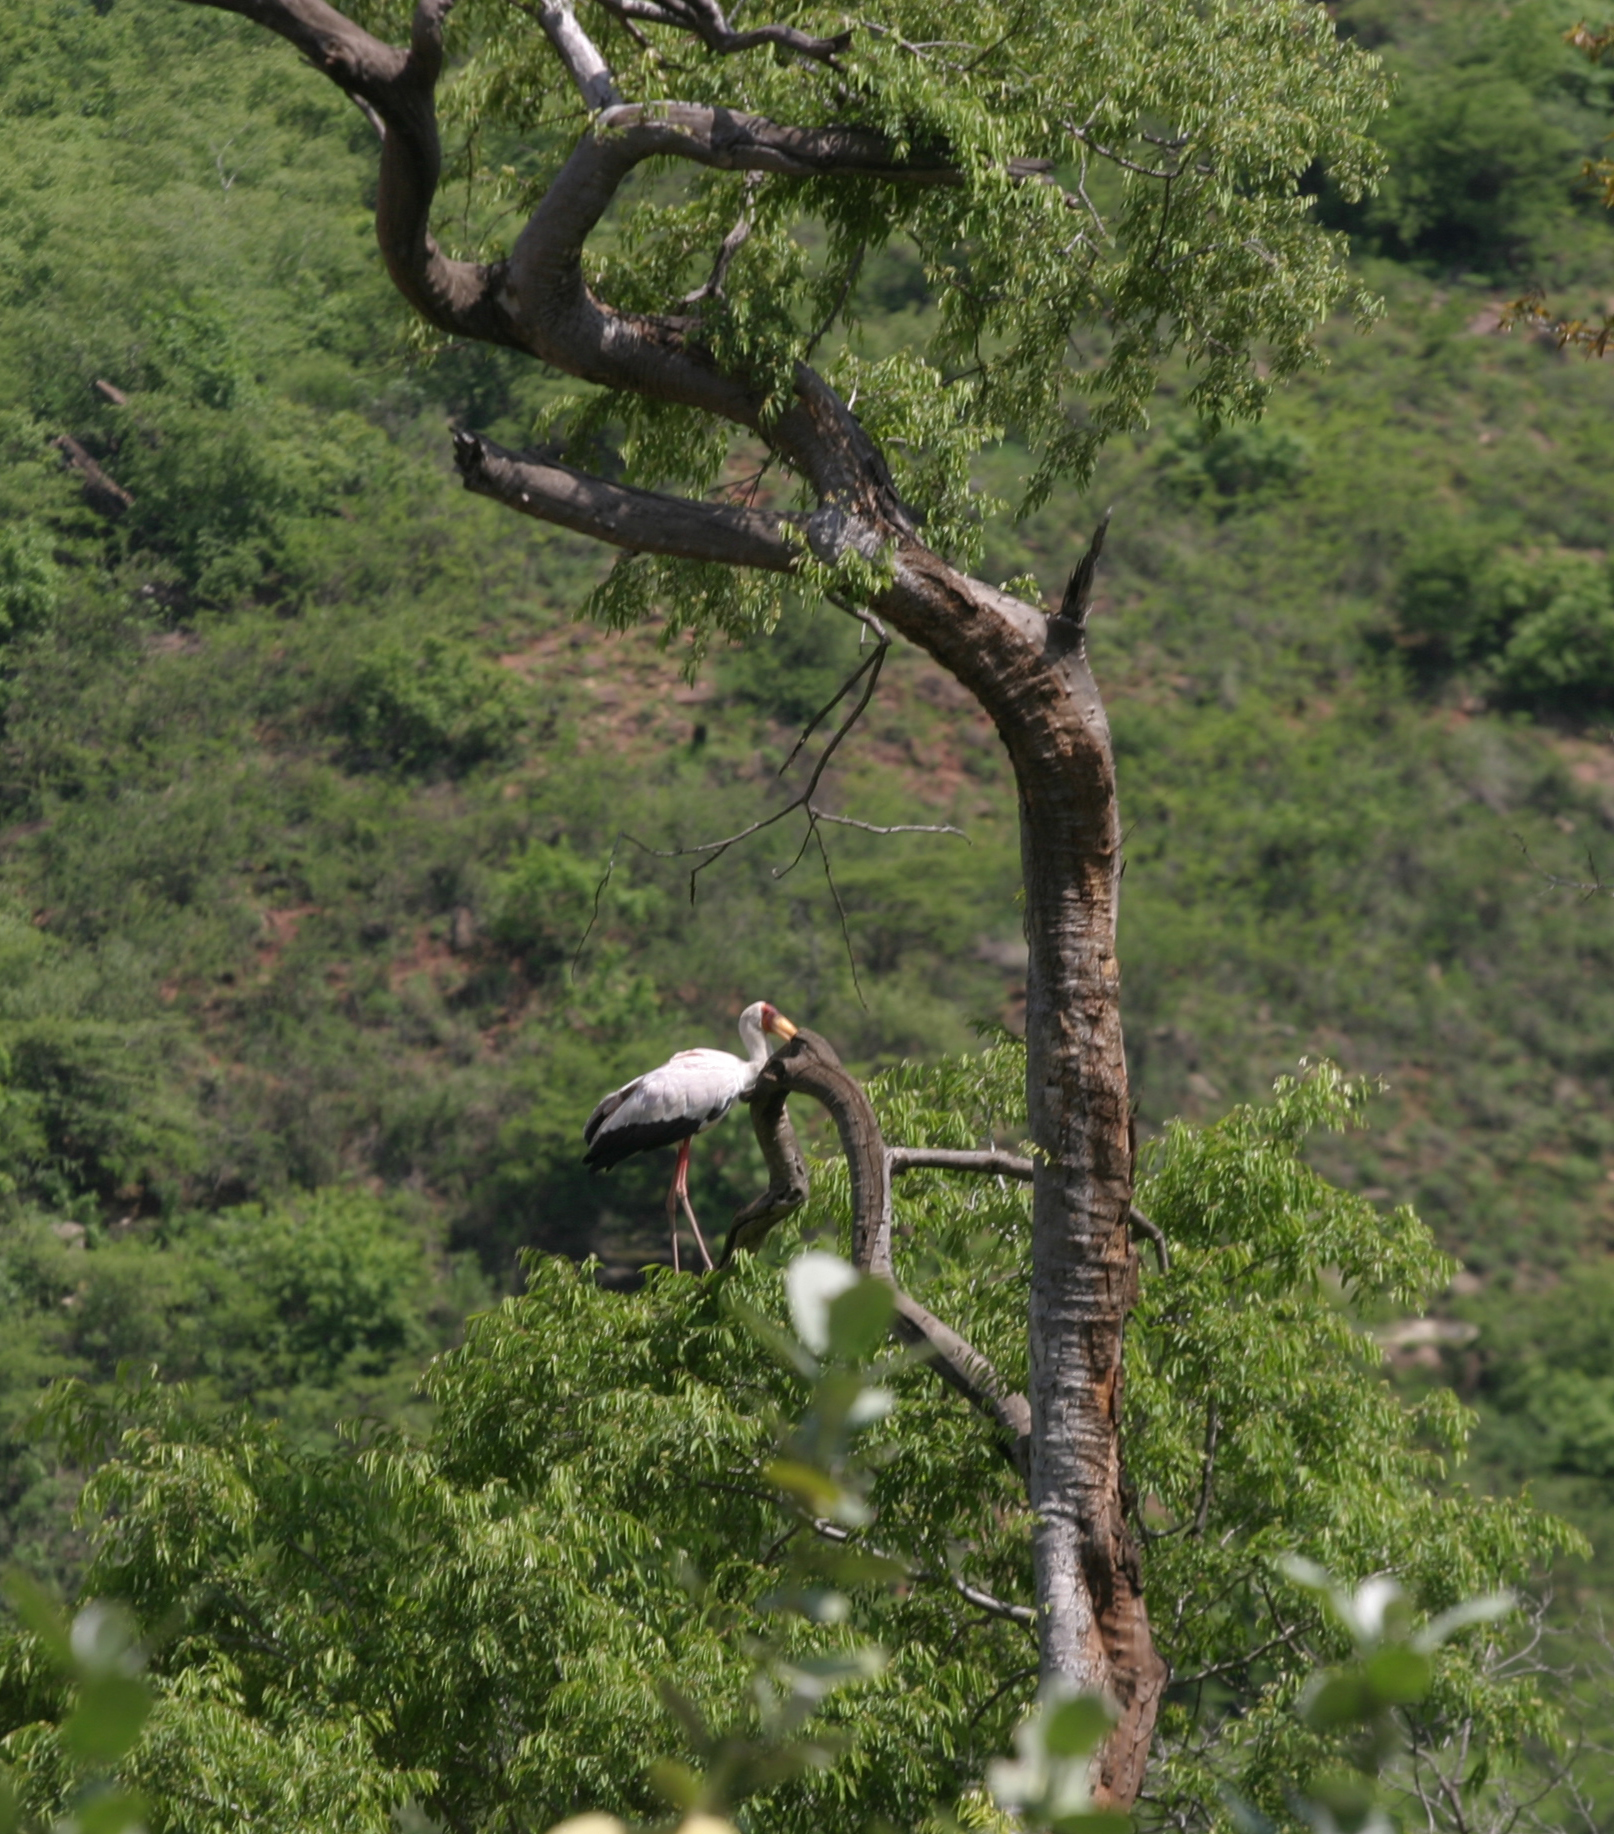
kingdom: Animalia
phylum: Chordata
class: Aves
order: Ciconiiformes
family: Ciconiidae
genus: Mycteria
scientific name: Mycteria ibis
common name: Yellow-billed stork
